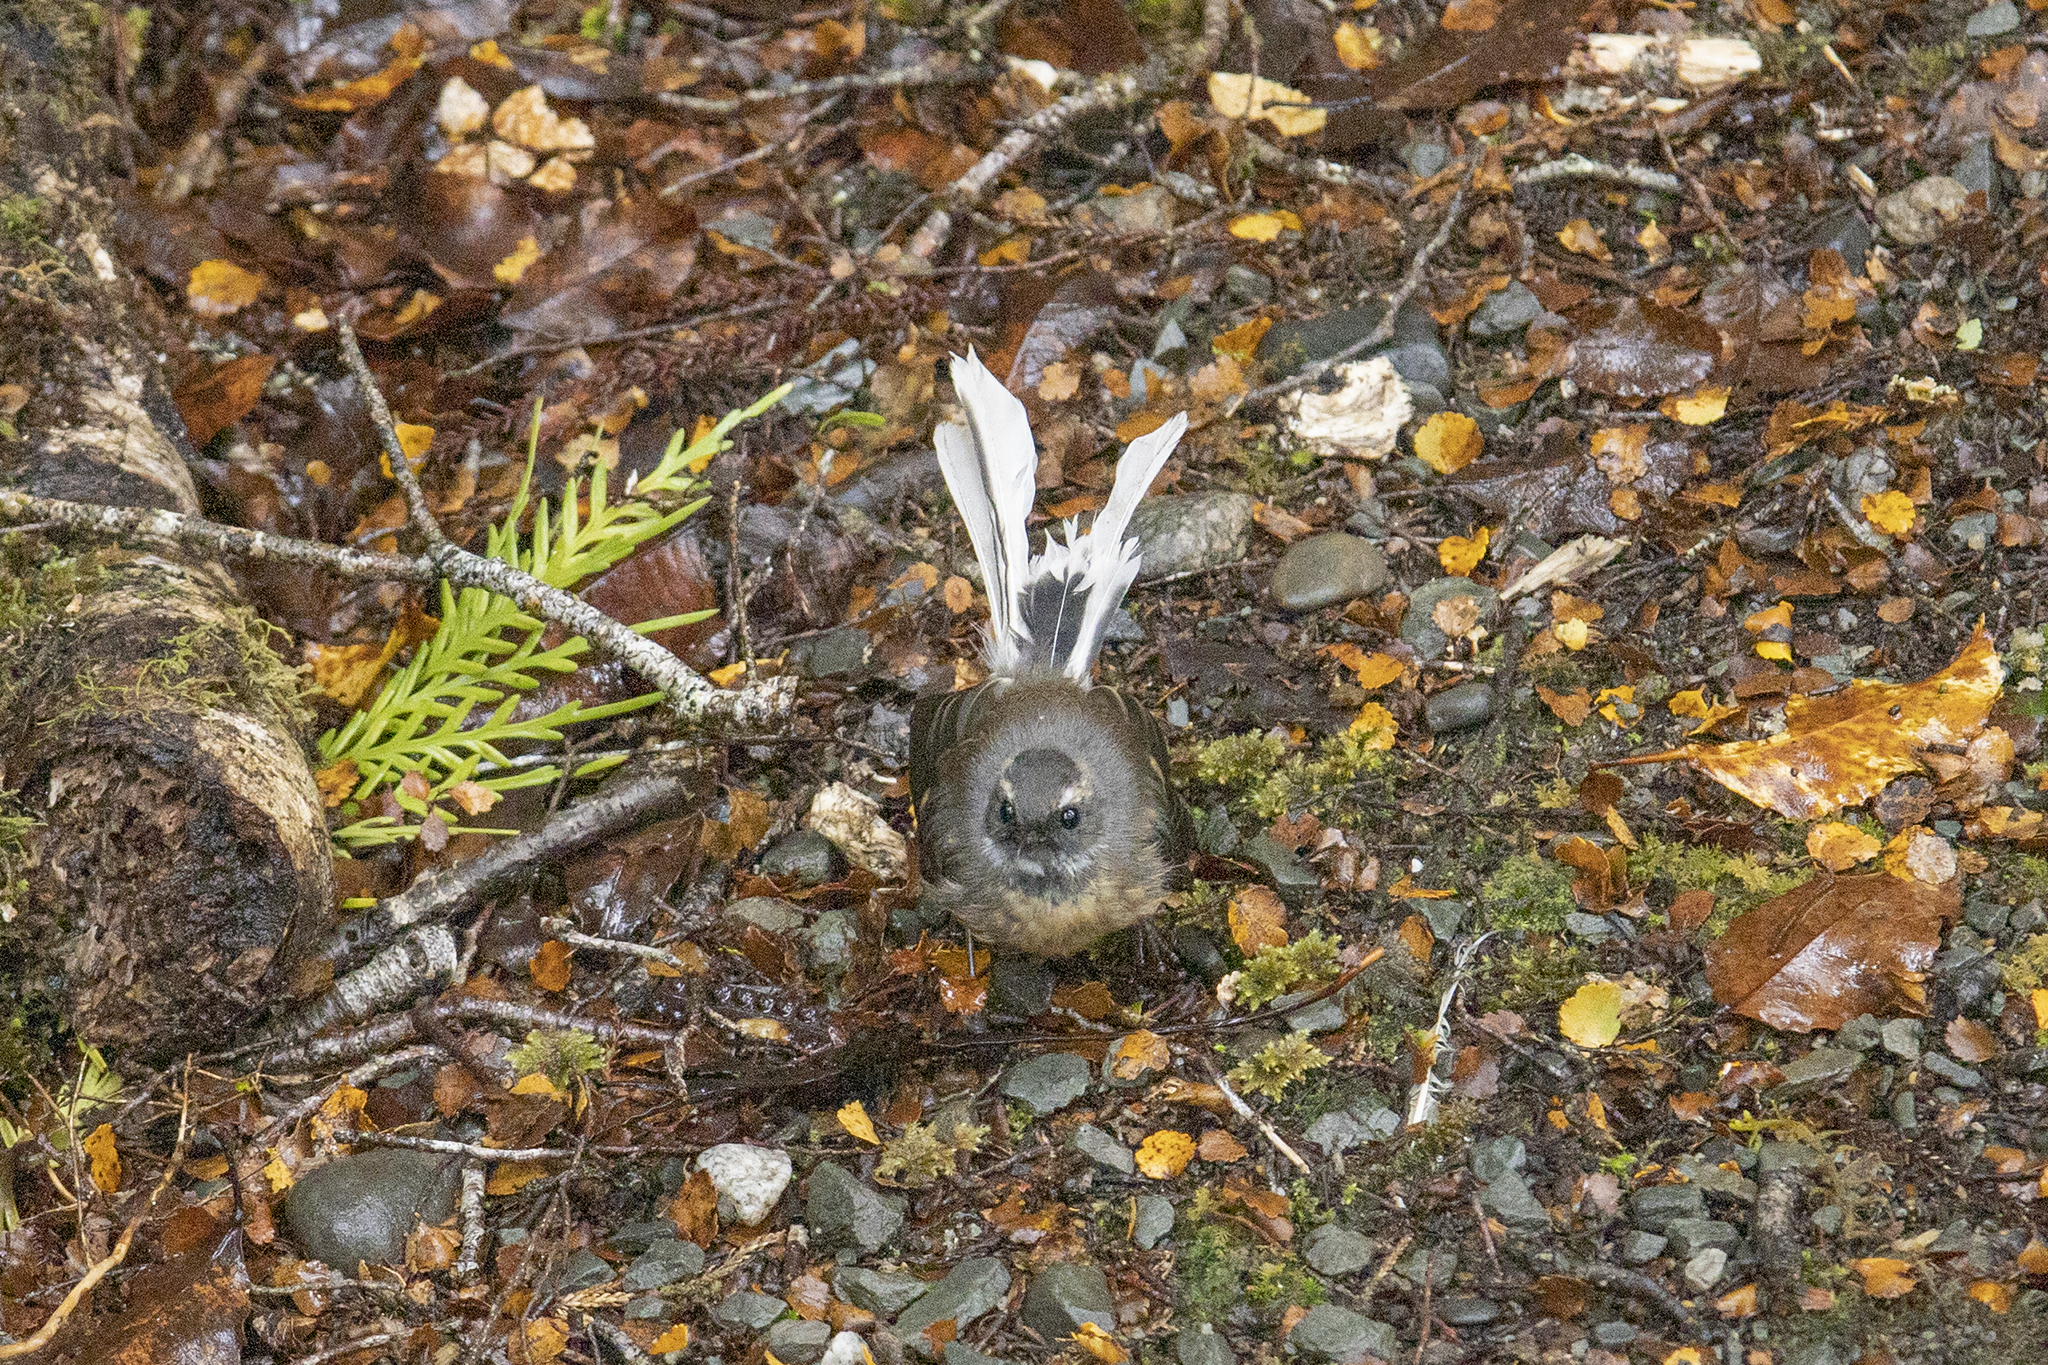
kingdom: Animalia
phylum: Chordata
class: Aves
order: Passeriformes
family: Rhipiduridae
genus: Rhipidura
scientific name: Rhipidura fuliginosa
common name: New zealand fantail
